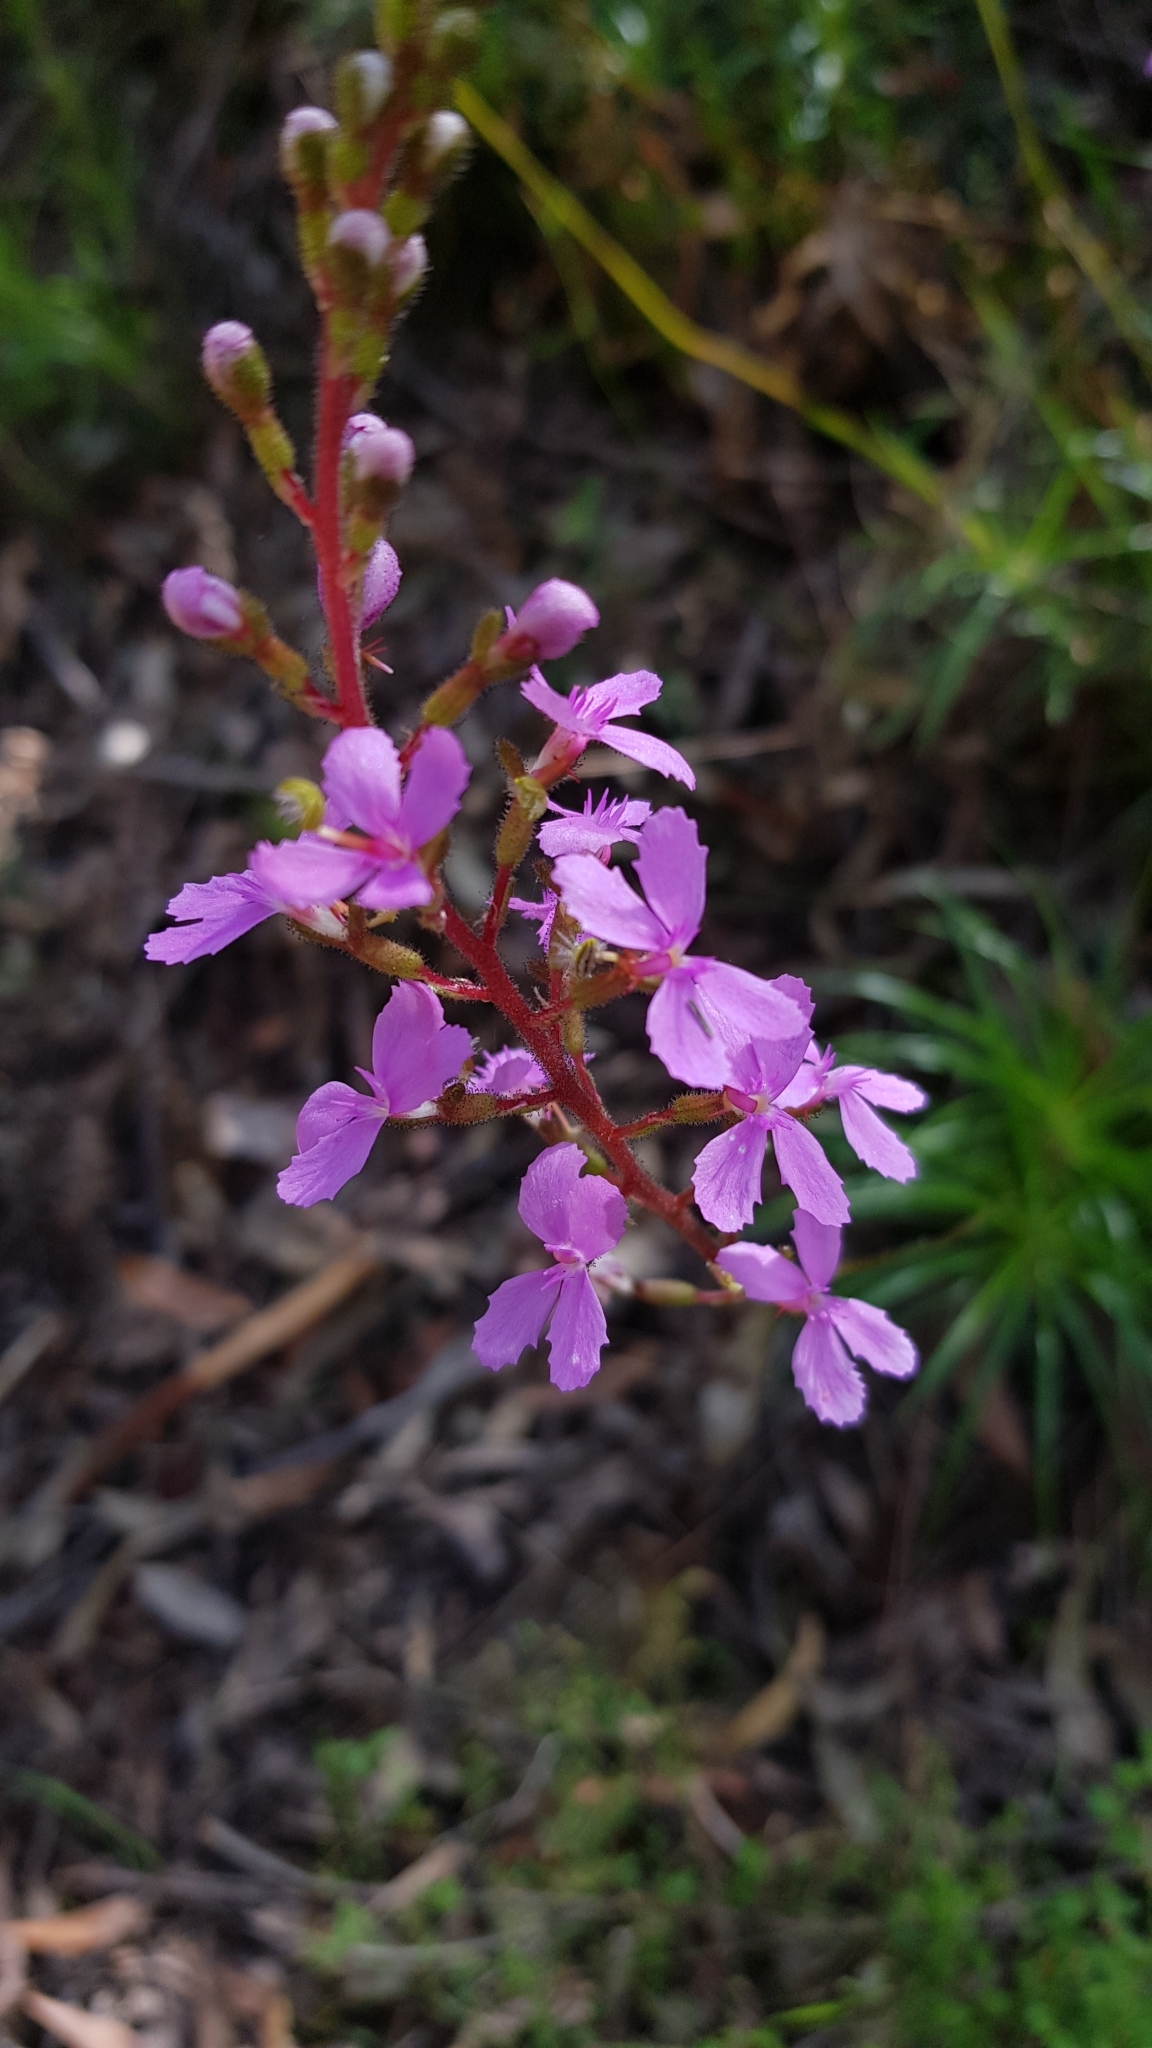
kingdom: Plantae
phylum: Tracheophyta
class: Magnoliopsida
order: Asterales
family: Stylidiaceae
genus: Stylidium
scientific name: Stylidium productum
